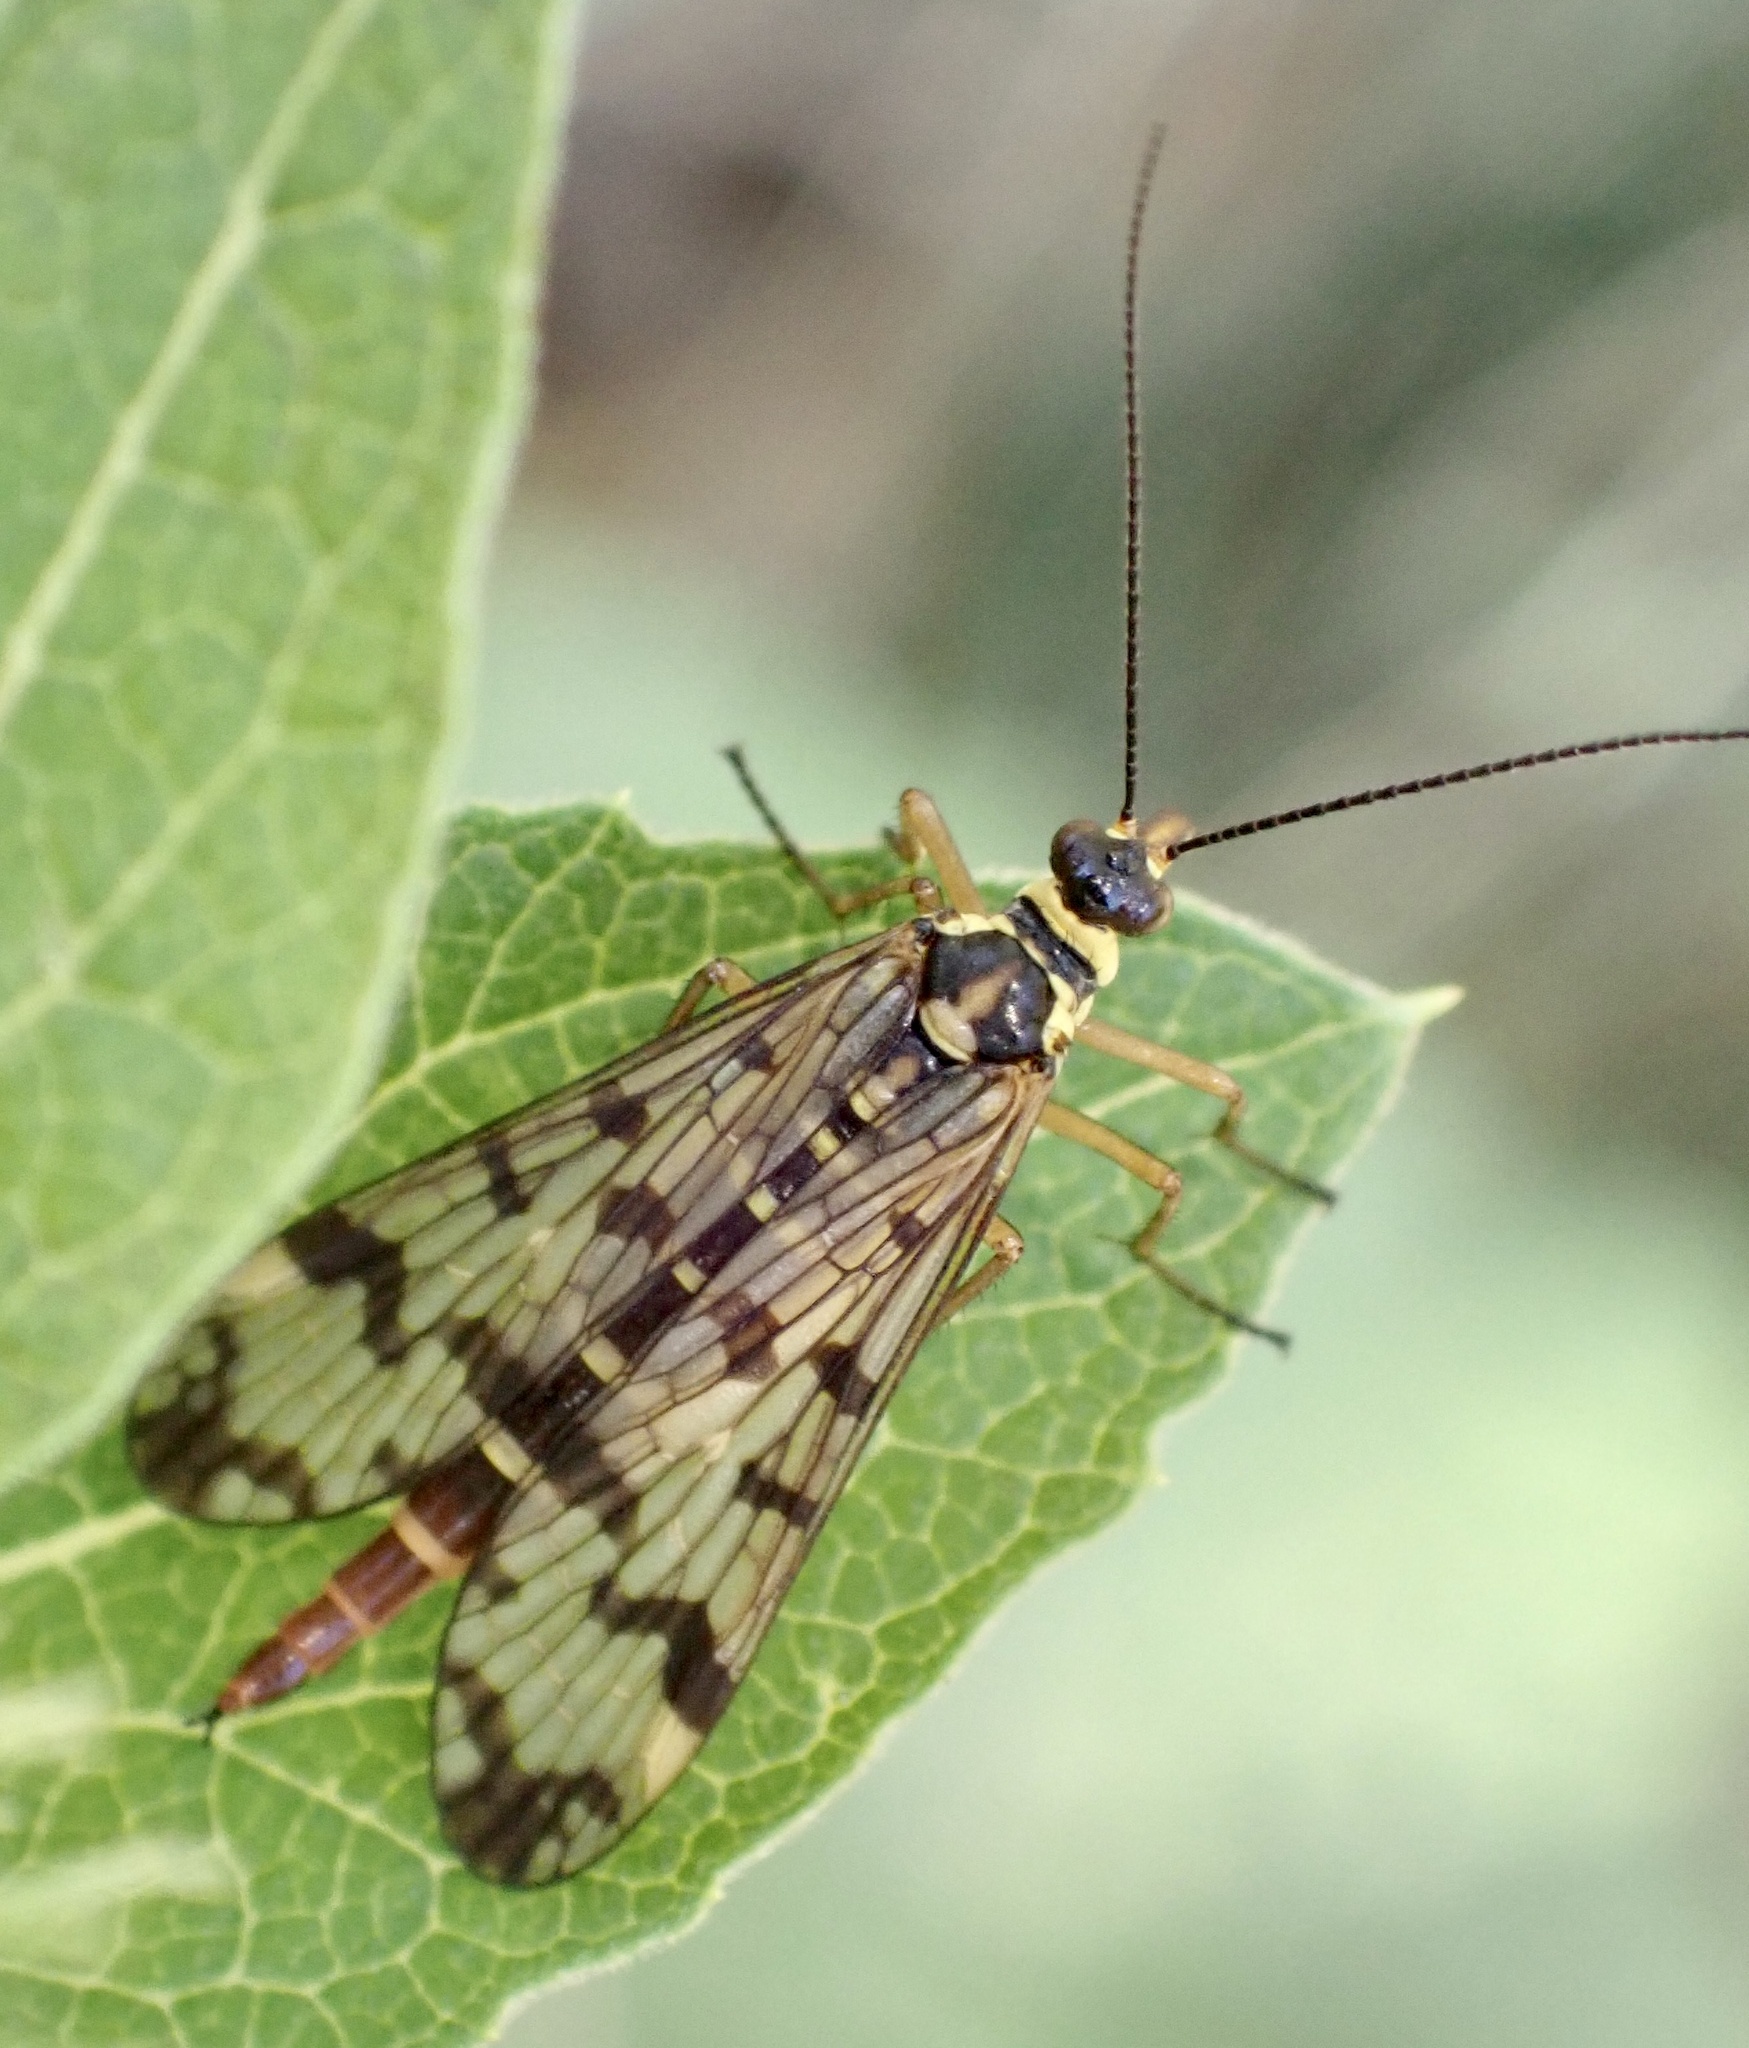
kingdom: Animalia
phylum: Arthropoda
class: Insecta
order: Mecoptera
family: Panorpidae
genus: Panorpa
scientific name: Panorpa communis
